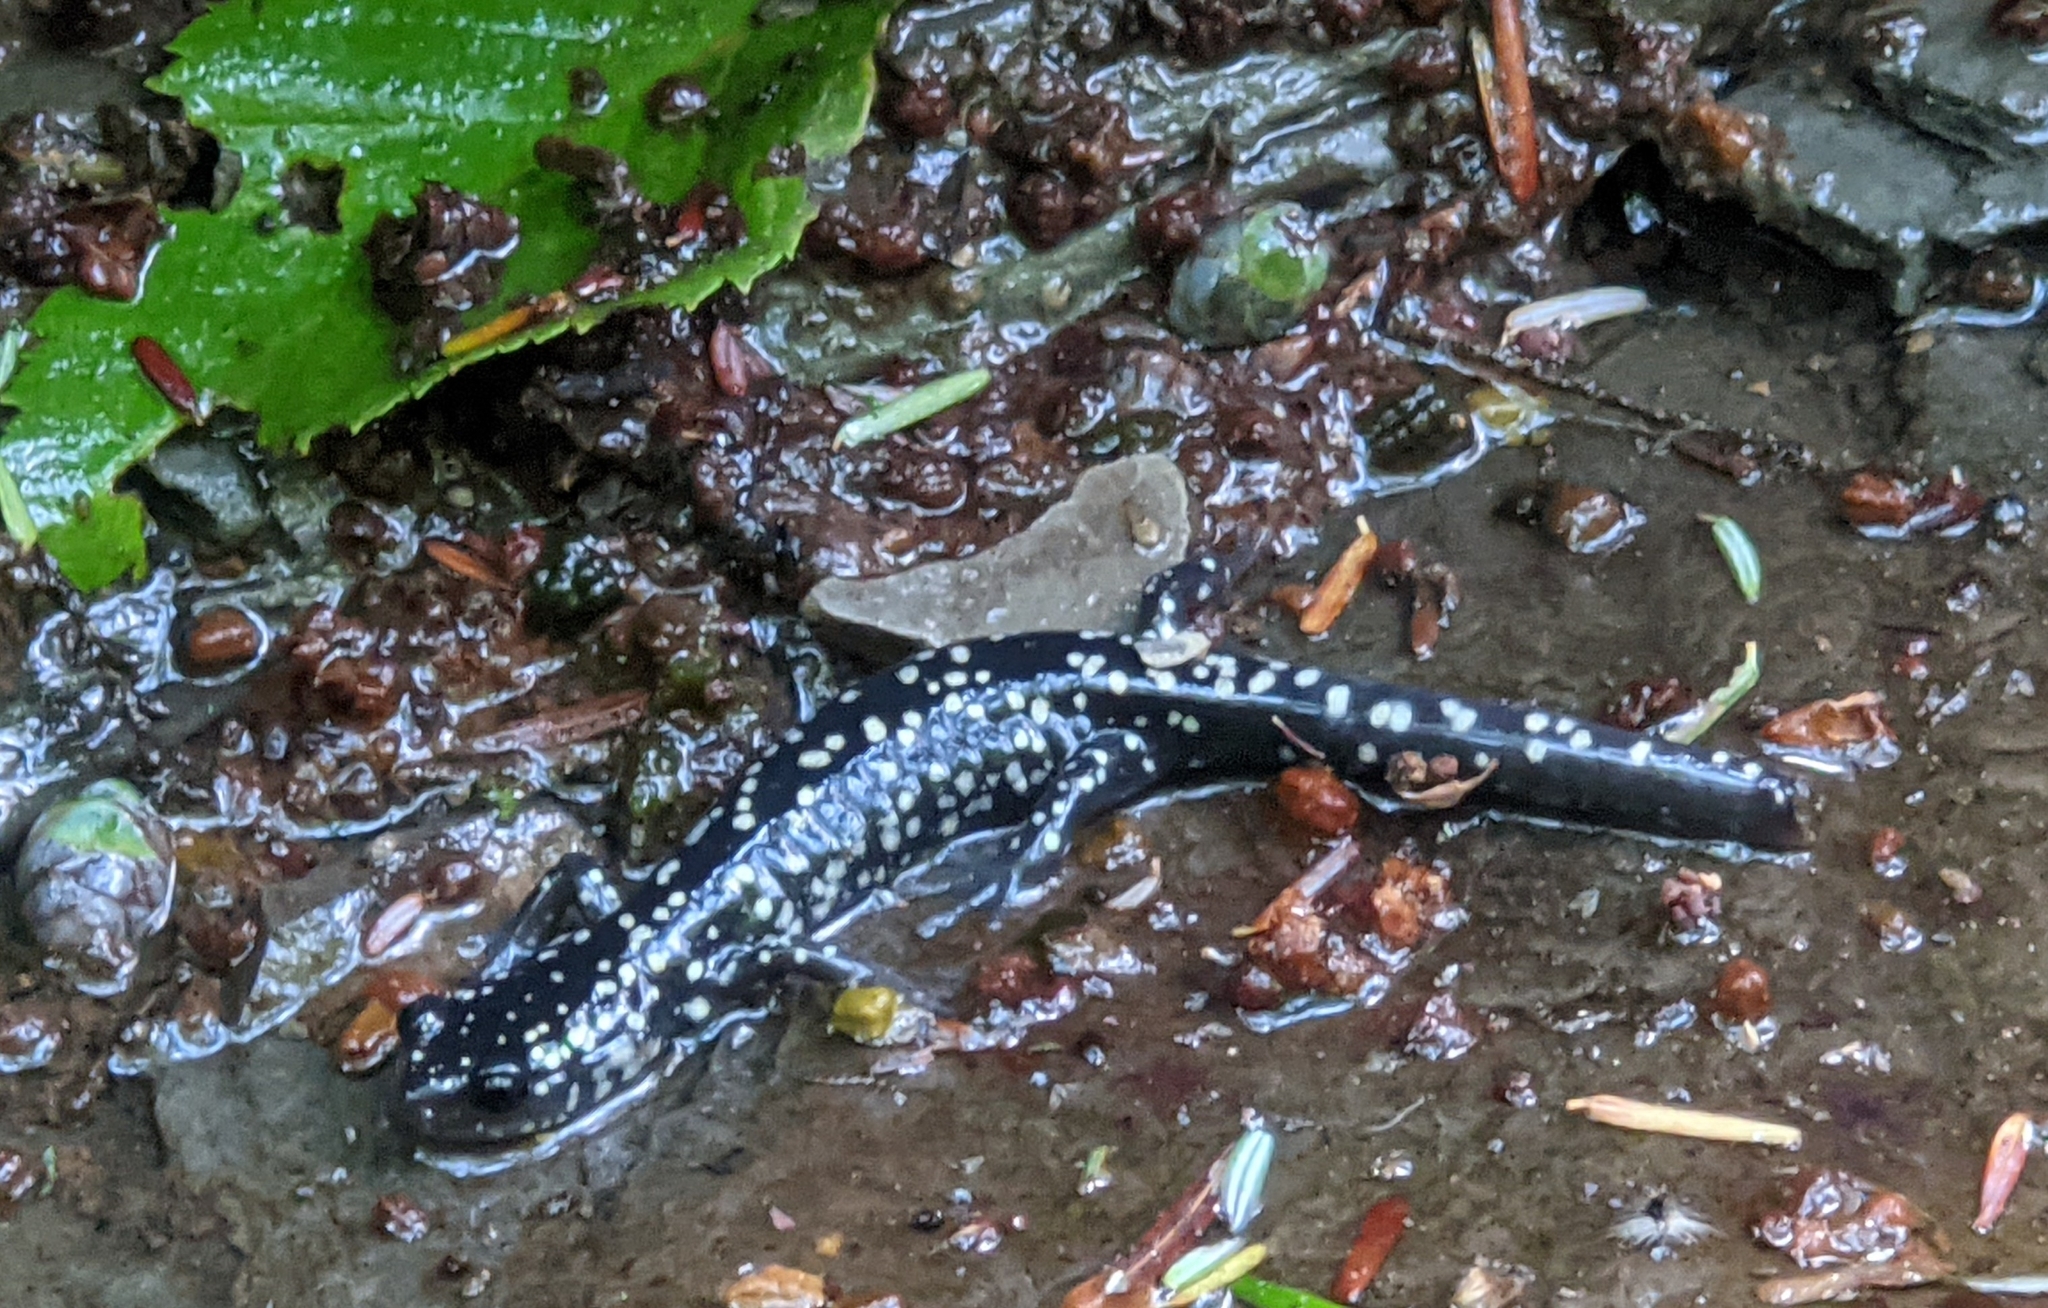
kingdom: Animalia
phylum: Chordata
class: Amphibia
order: Caudata
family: Plethodontidae
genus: Plethodon
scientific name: Plethodon glutinosus
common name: Northern slimy salamander
